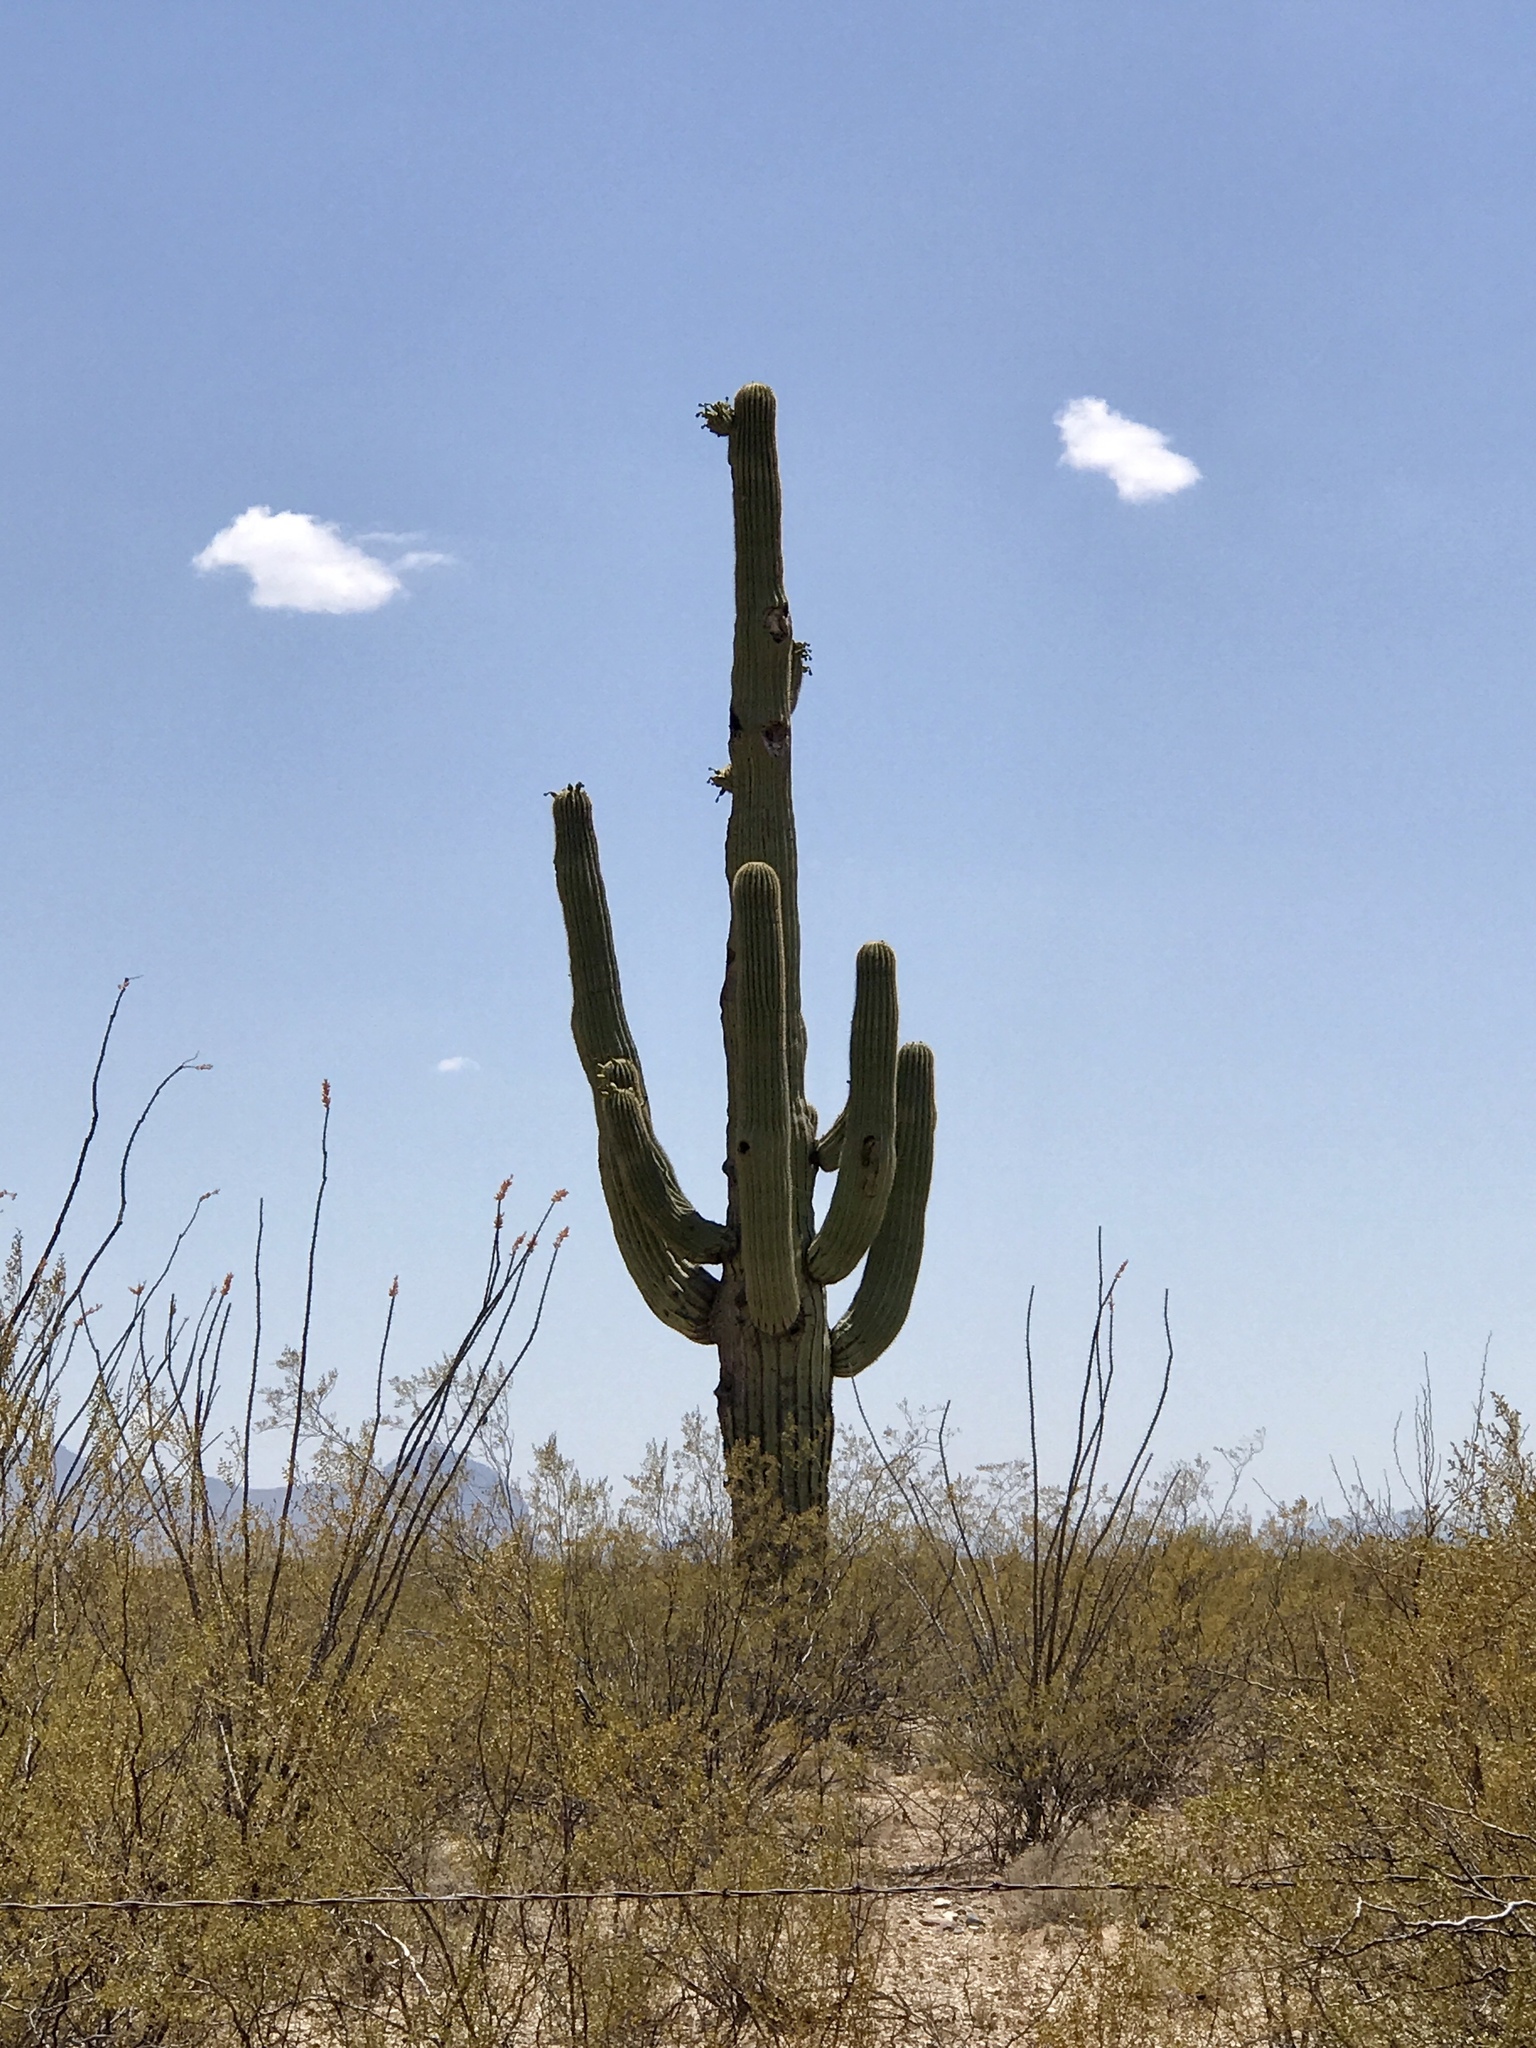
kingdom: Plantae
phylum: Tracheophyta
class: Magnoliopsida
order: Caryophyllales
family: Cactaceae
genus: Carnegiea
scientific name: Carnegiea gigantea
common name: Saguaro
